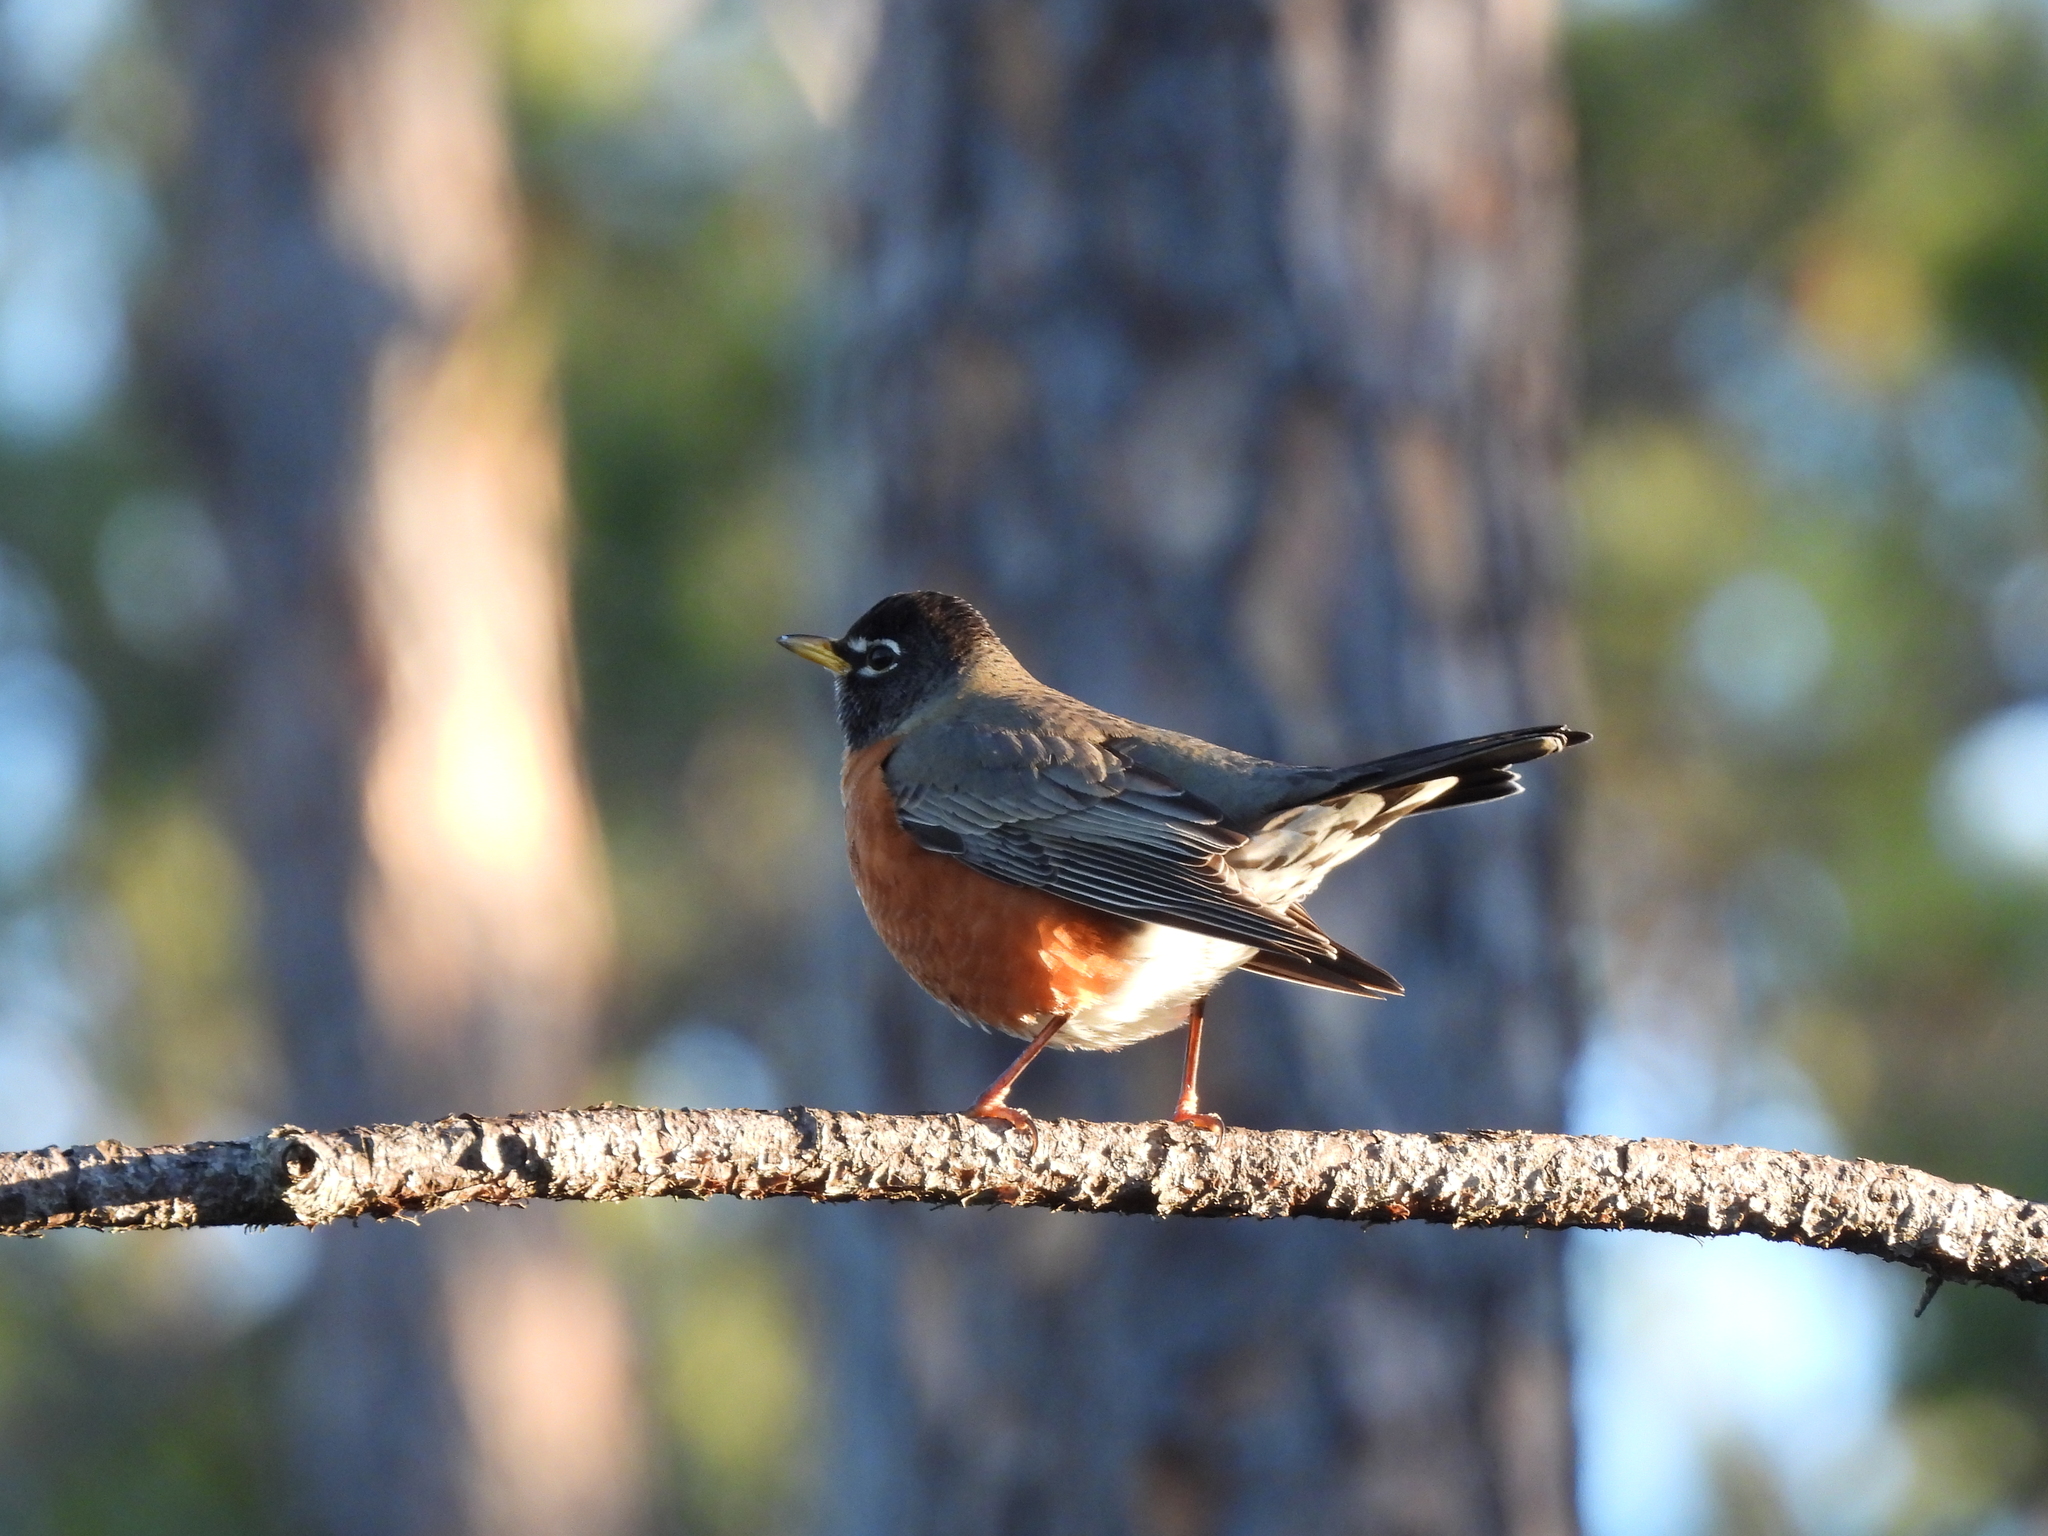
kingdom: Animalia
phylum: Chordata
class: Aves
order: Passeriformes
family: Turdidae
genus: Turdus
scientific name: Turdus migratorius
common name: American robin
